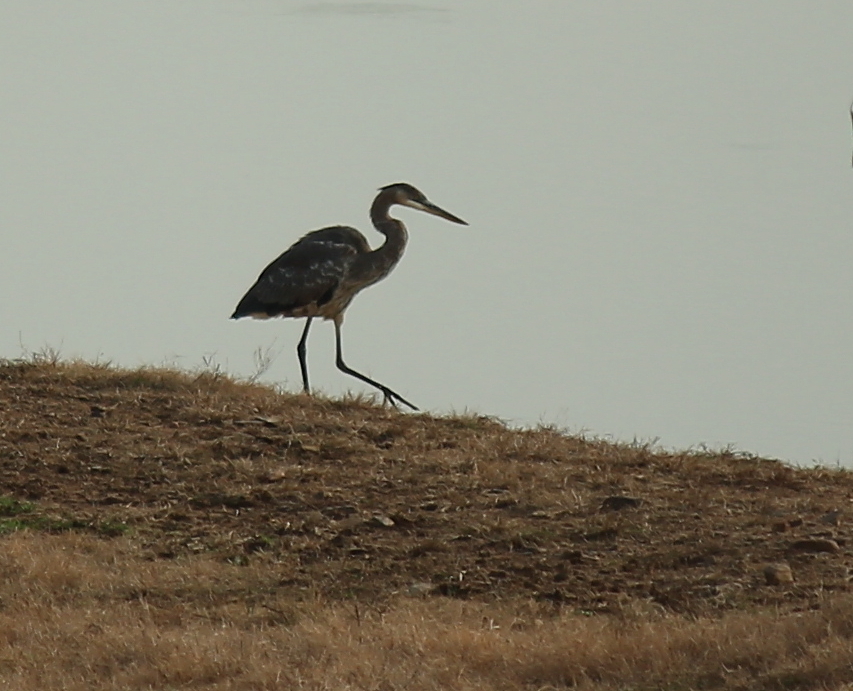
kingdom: Animalia
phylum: Chordata
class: Aves
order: Pelecaniformes
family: Ardeidae
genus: Ardea
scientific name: Ardea herodias
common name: Great blue heron
